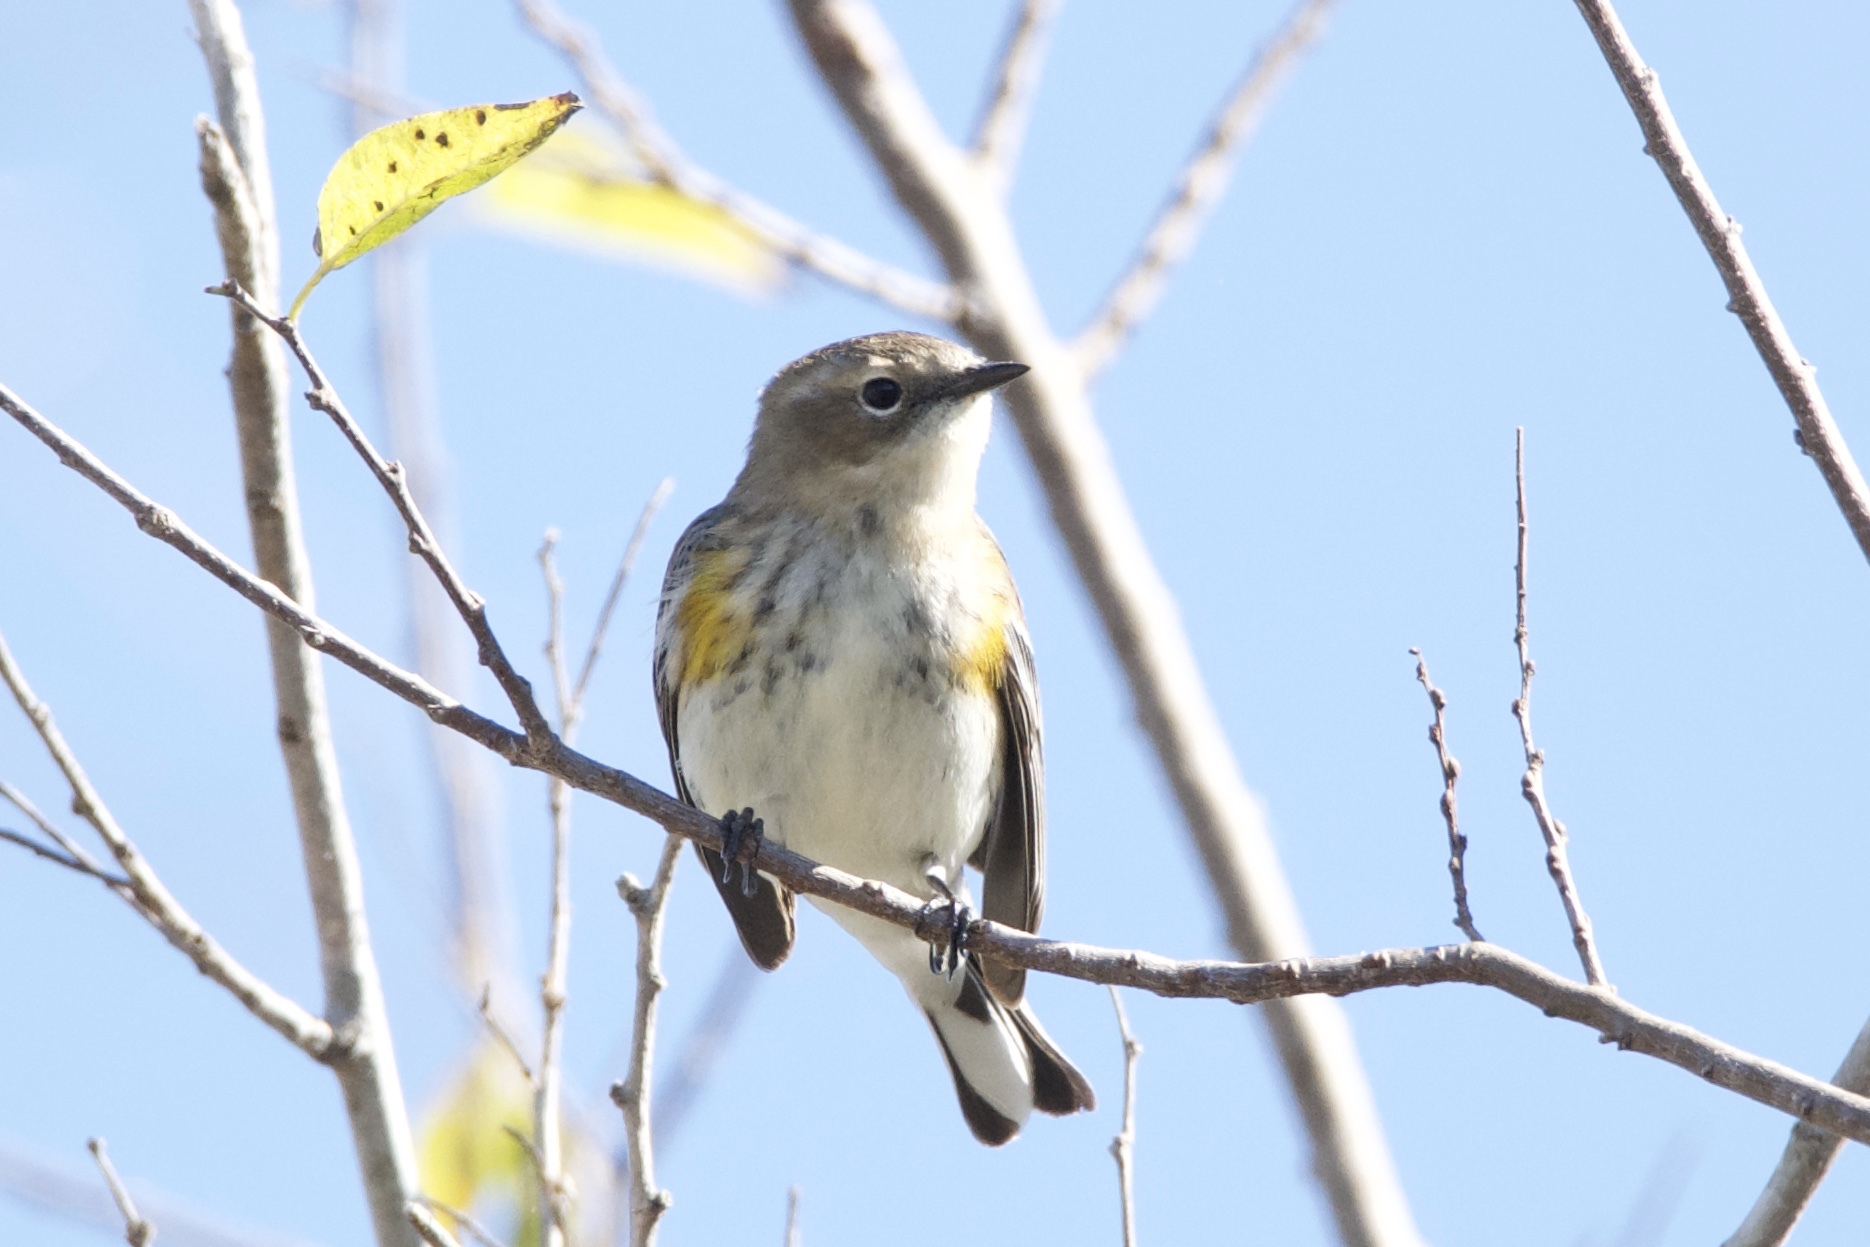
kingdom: Animalia
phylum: Chordata
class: Aves
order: Passeriformes
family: Parulidae
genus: Setophaga
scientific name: Setophaga coronata
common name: Myrtle warbler
